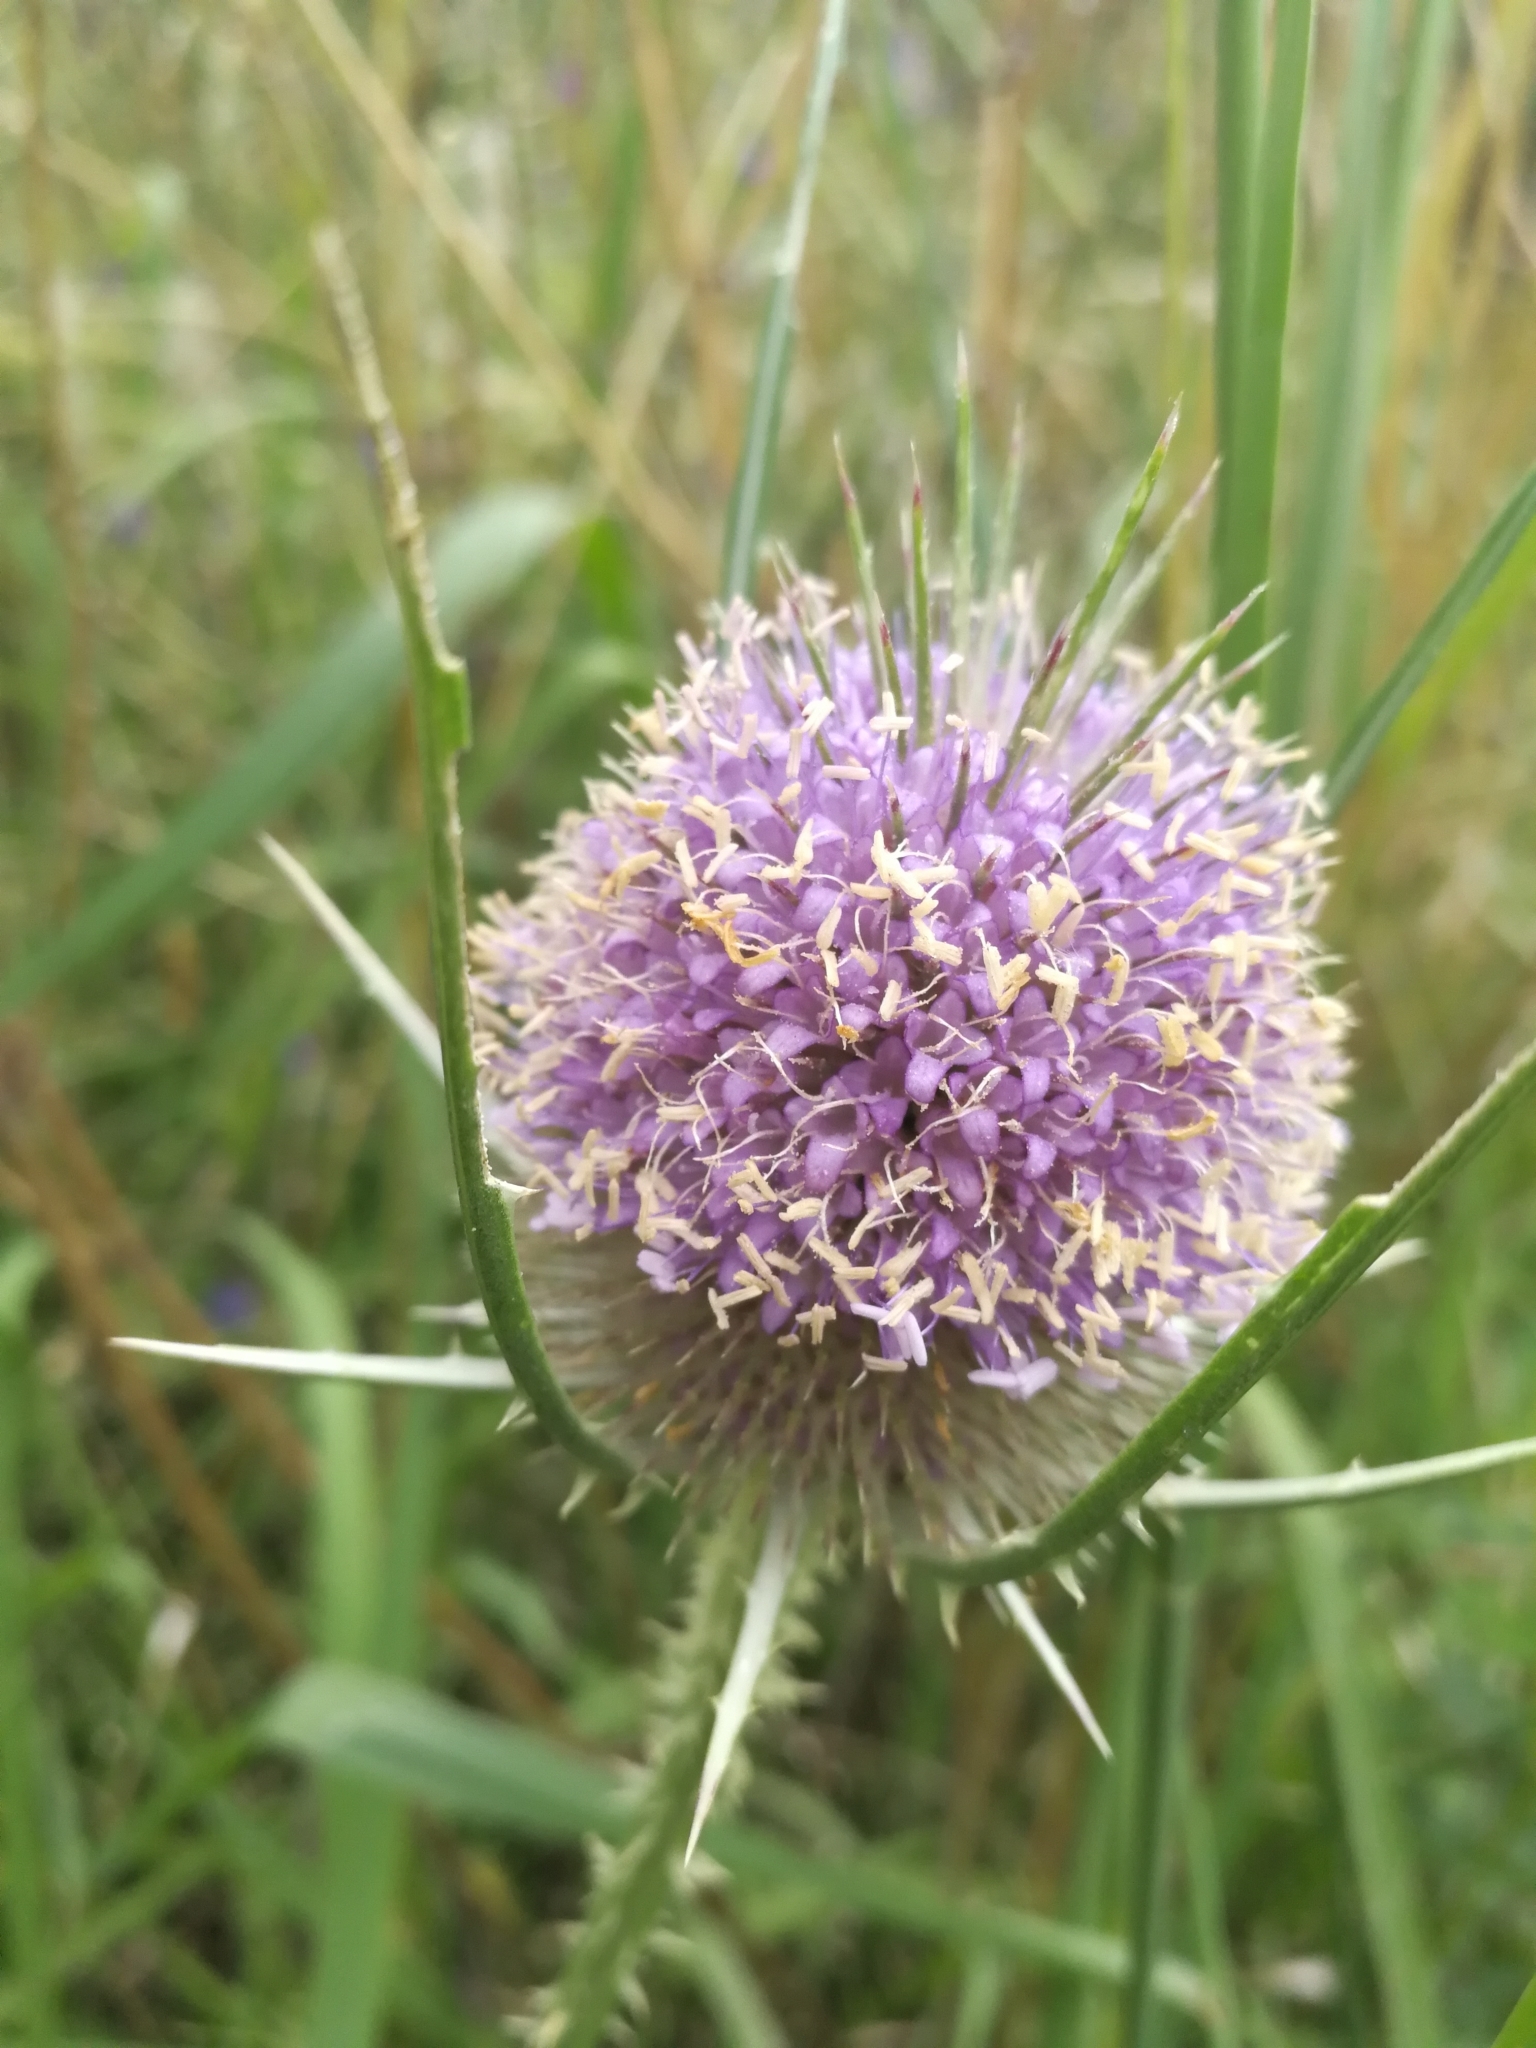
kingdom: Plantae
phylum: Tracheophyta
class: Magnoliopsida
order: Dipsacales
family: Caprifoliaceae
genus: Dipsacus
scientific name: Dipsacus fullonum
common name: Teasel
